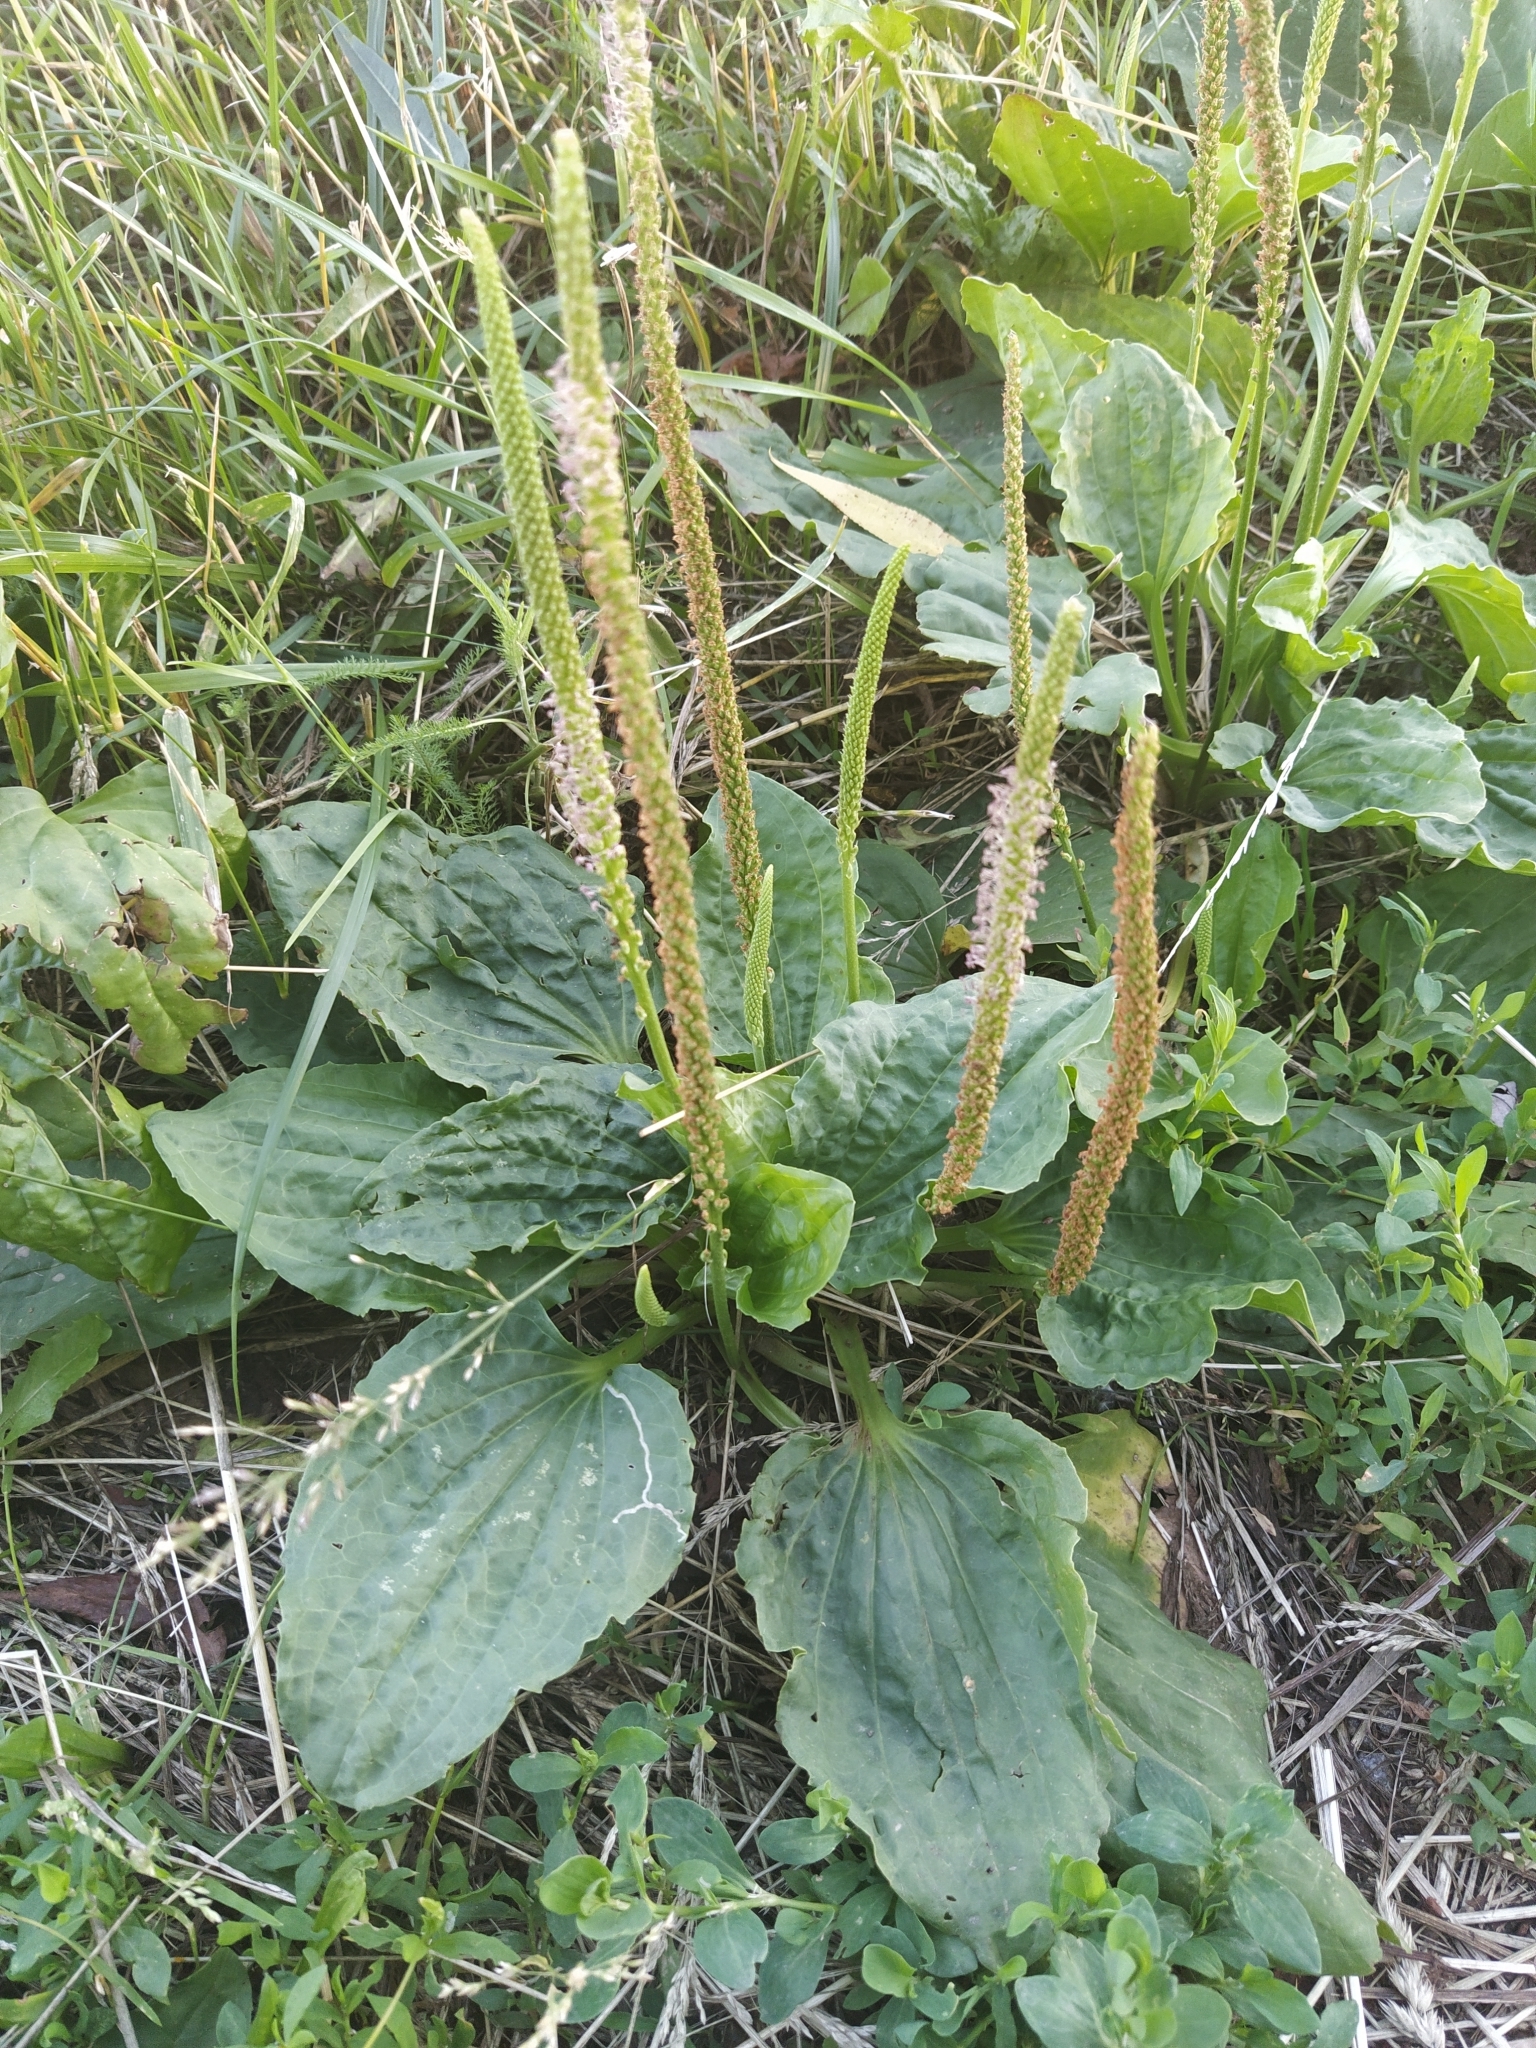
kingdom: Plantae
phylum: Tracheophyta
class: Magnoliopsida
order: Lamiales
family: Plantaginaceae
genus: Plantago
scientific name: Plantago major
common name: Common plantain
